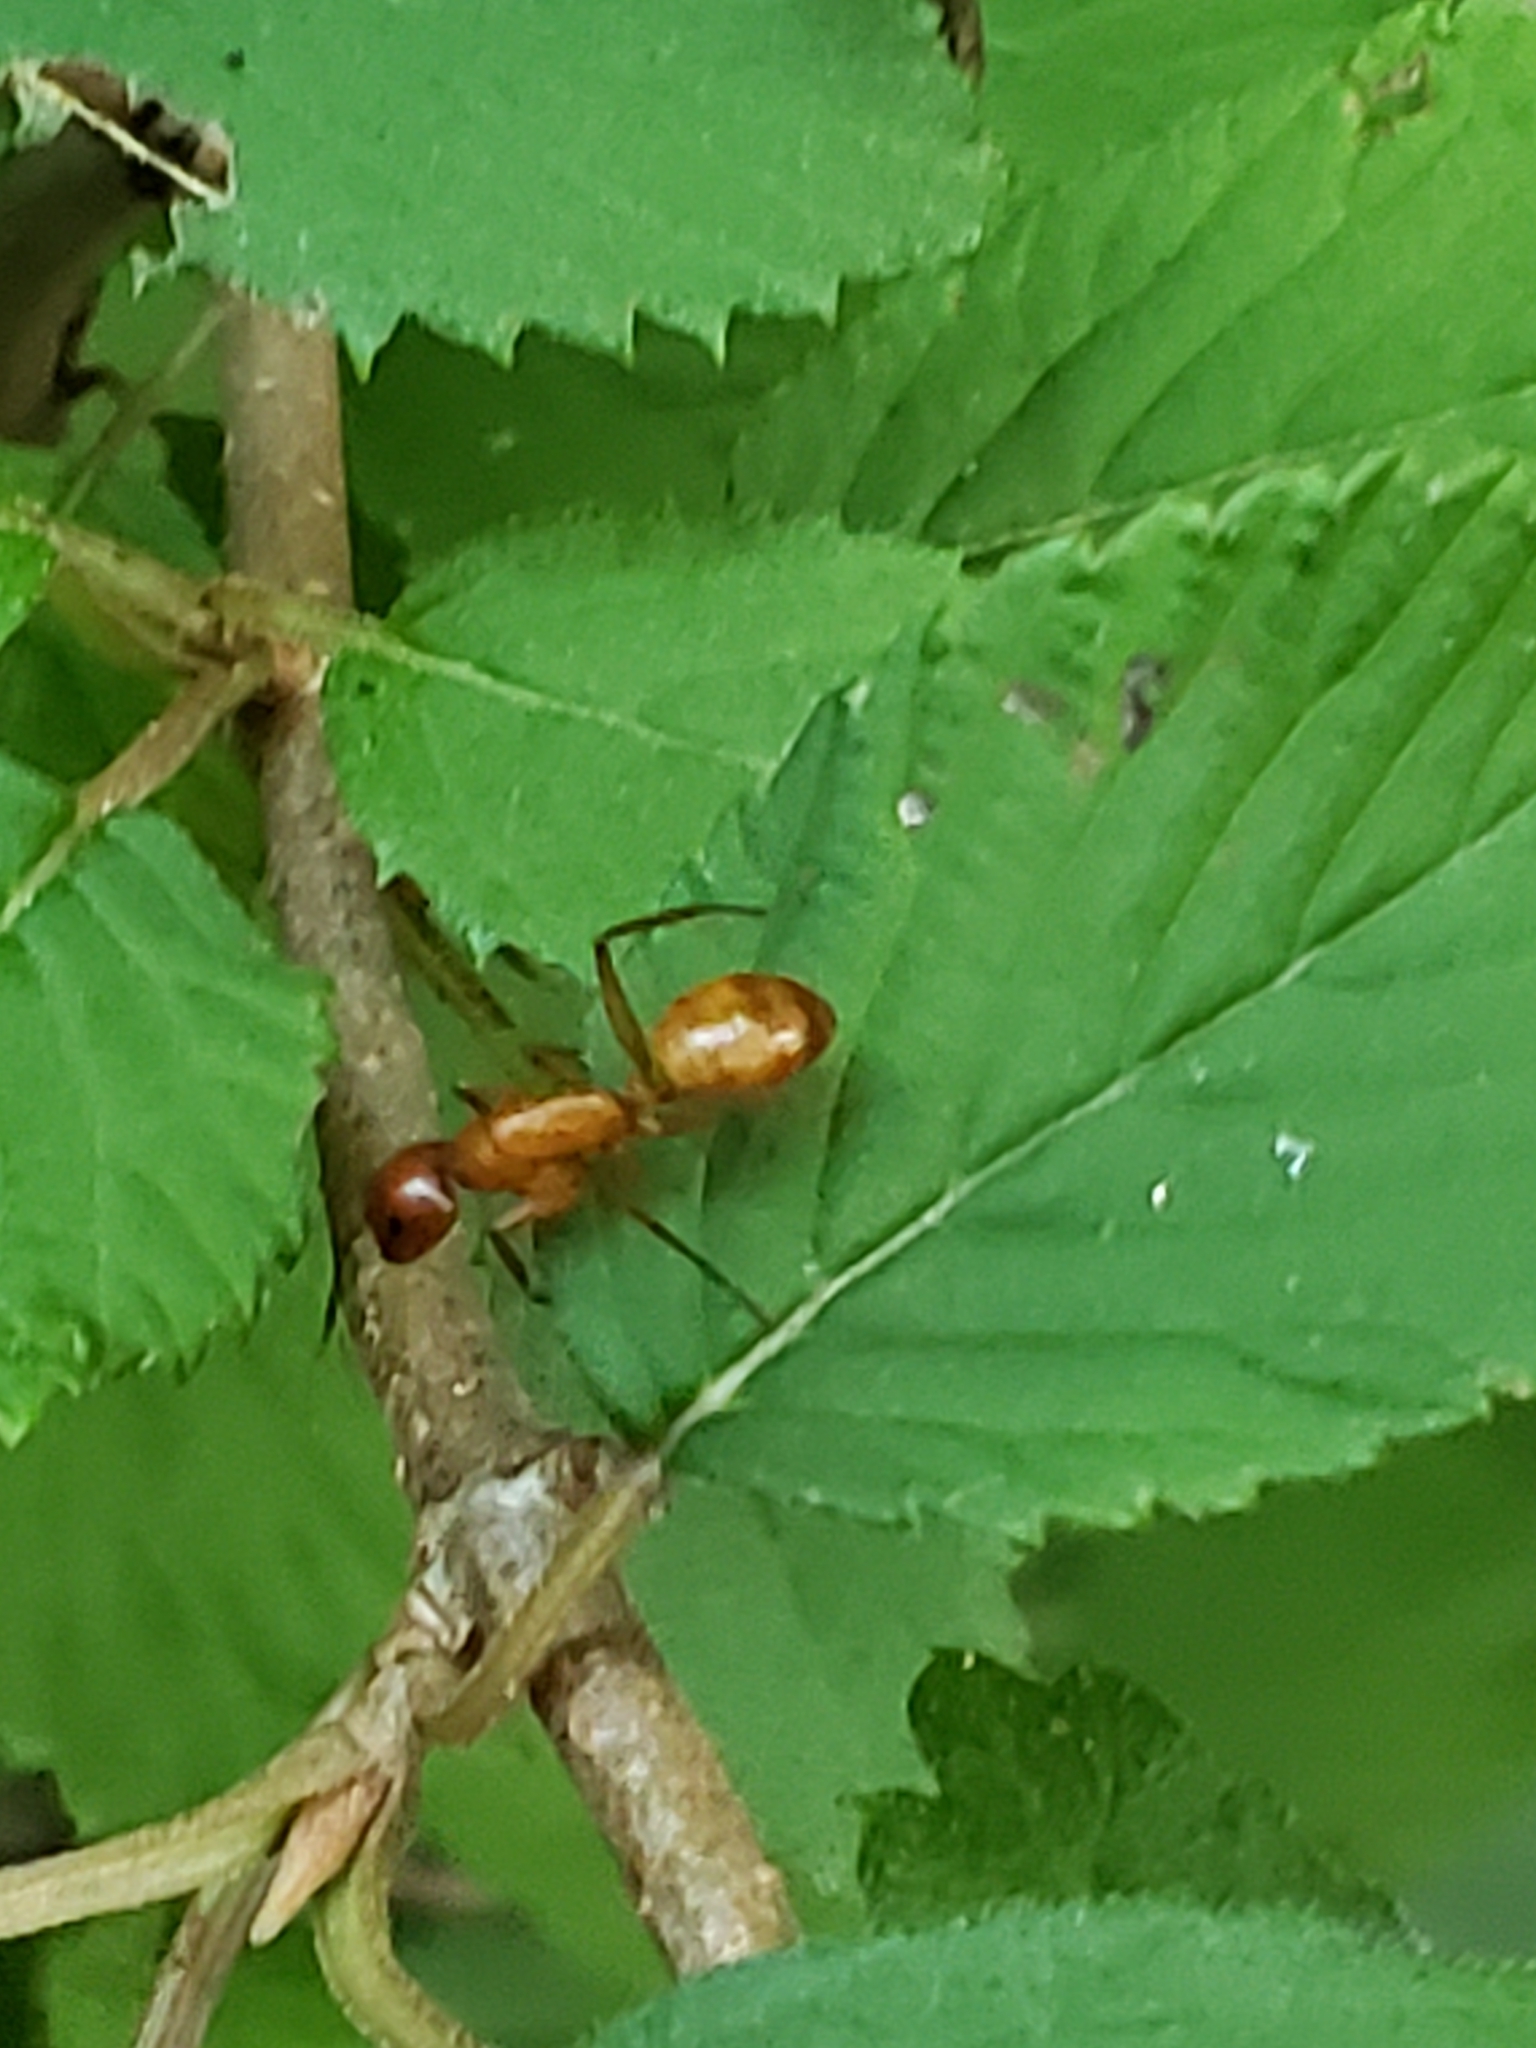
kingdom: Animalia
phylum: Arthropoda
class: Insecta
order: Hymenoptera
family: Formicidae
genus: Camponotus
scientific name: Camponotus castaneus
